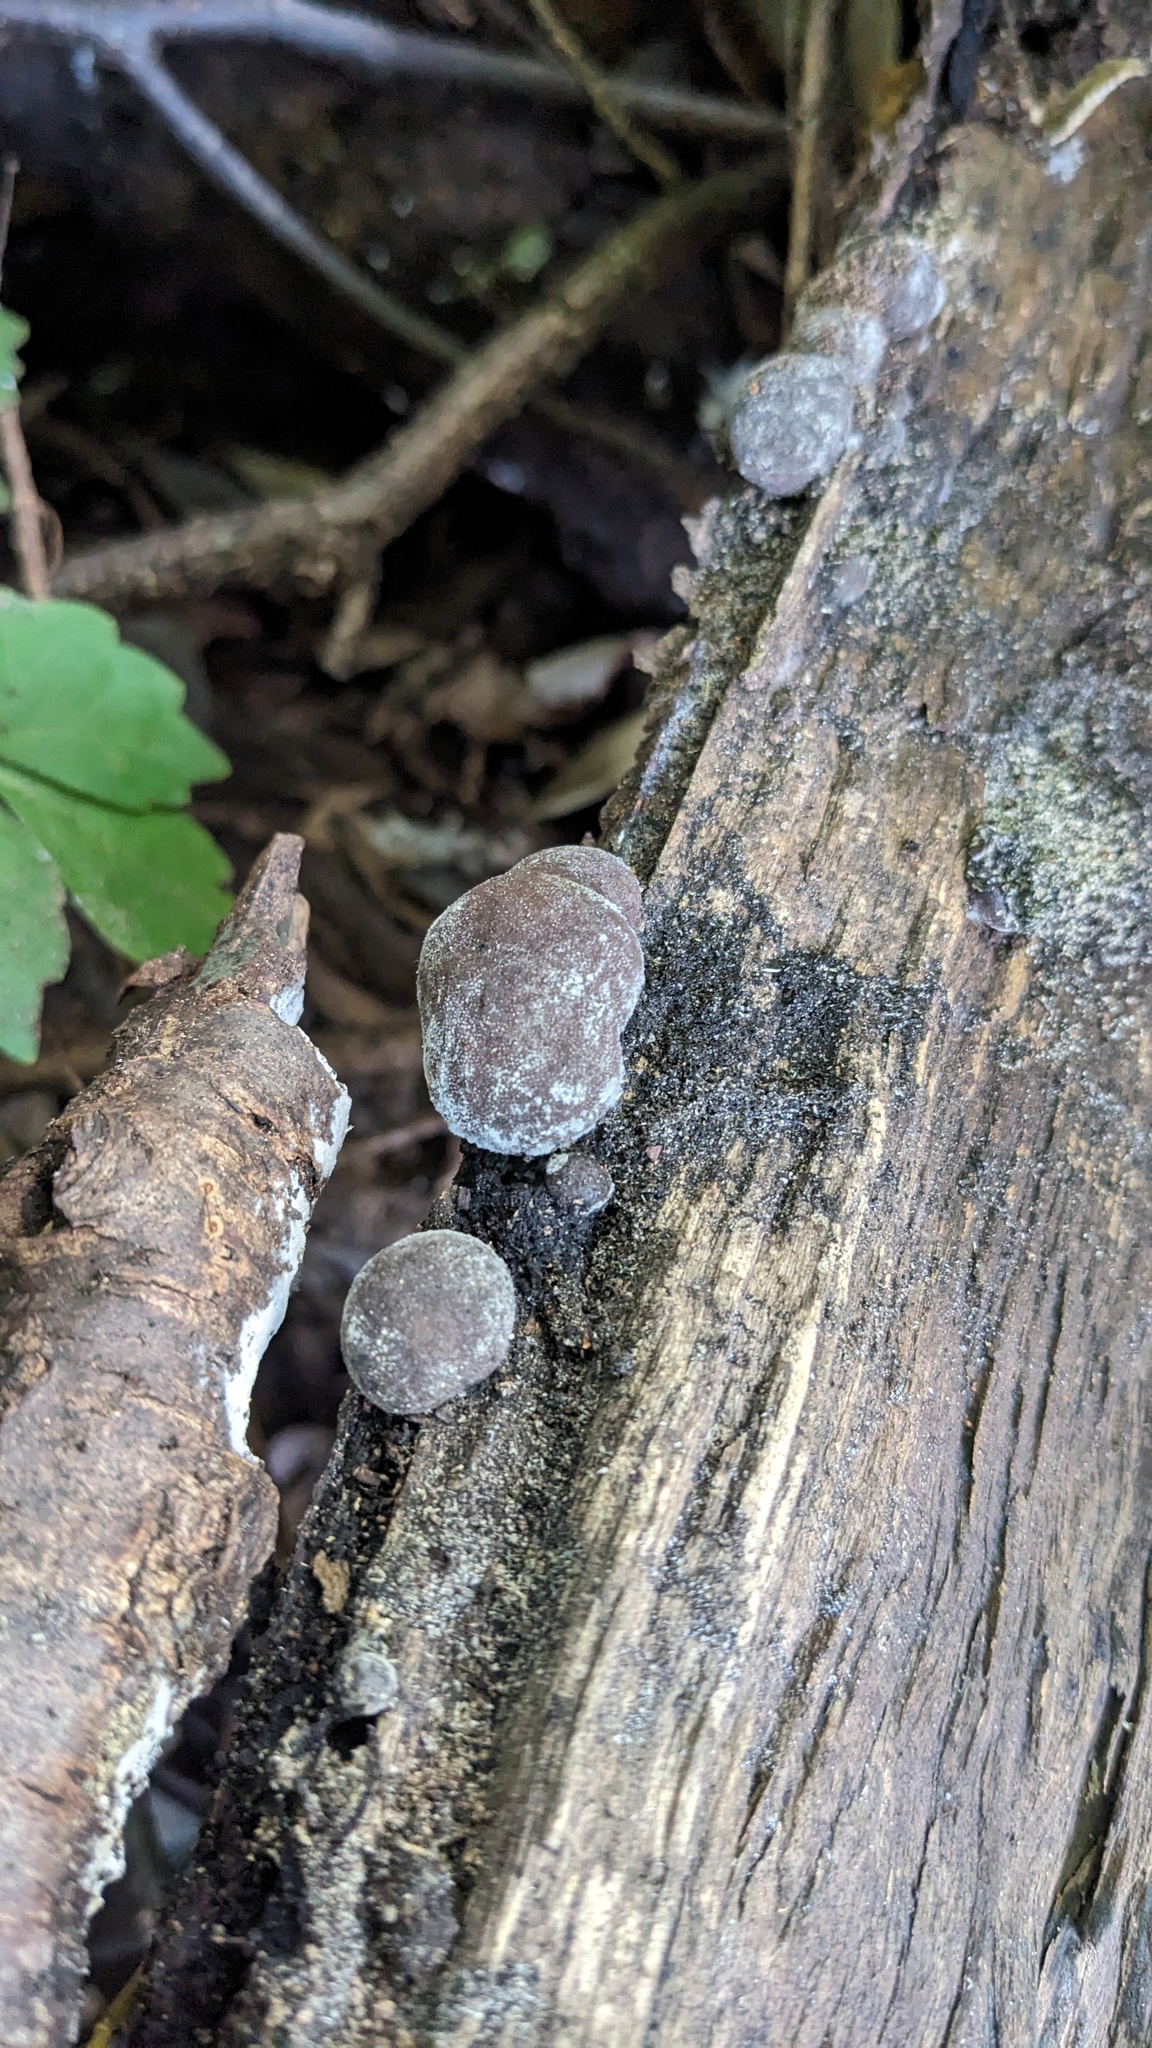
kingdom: Fungi
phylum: Ascomycota
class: Sordariomycetes
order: Xylariales
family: Hypoxylaceae
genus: Daldinia
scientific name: Daldinia childiae
